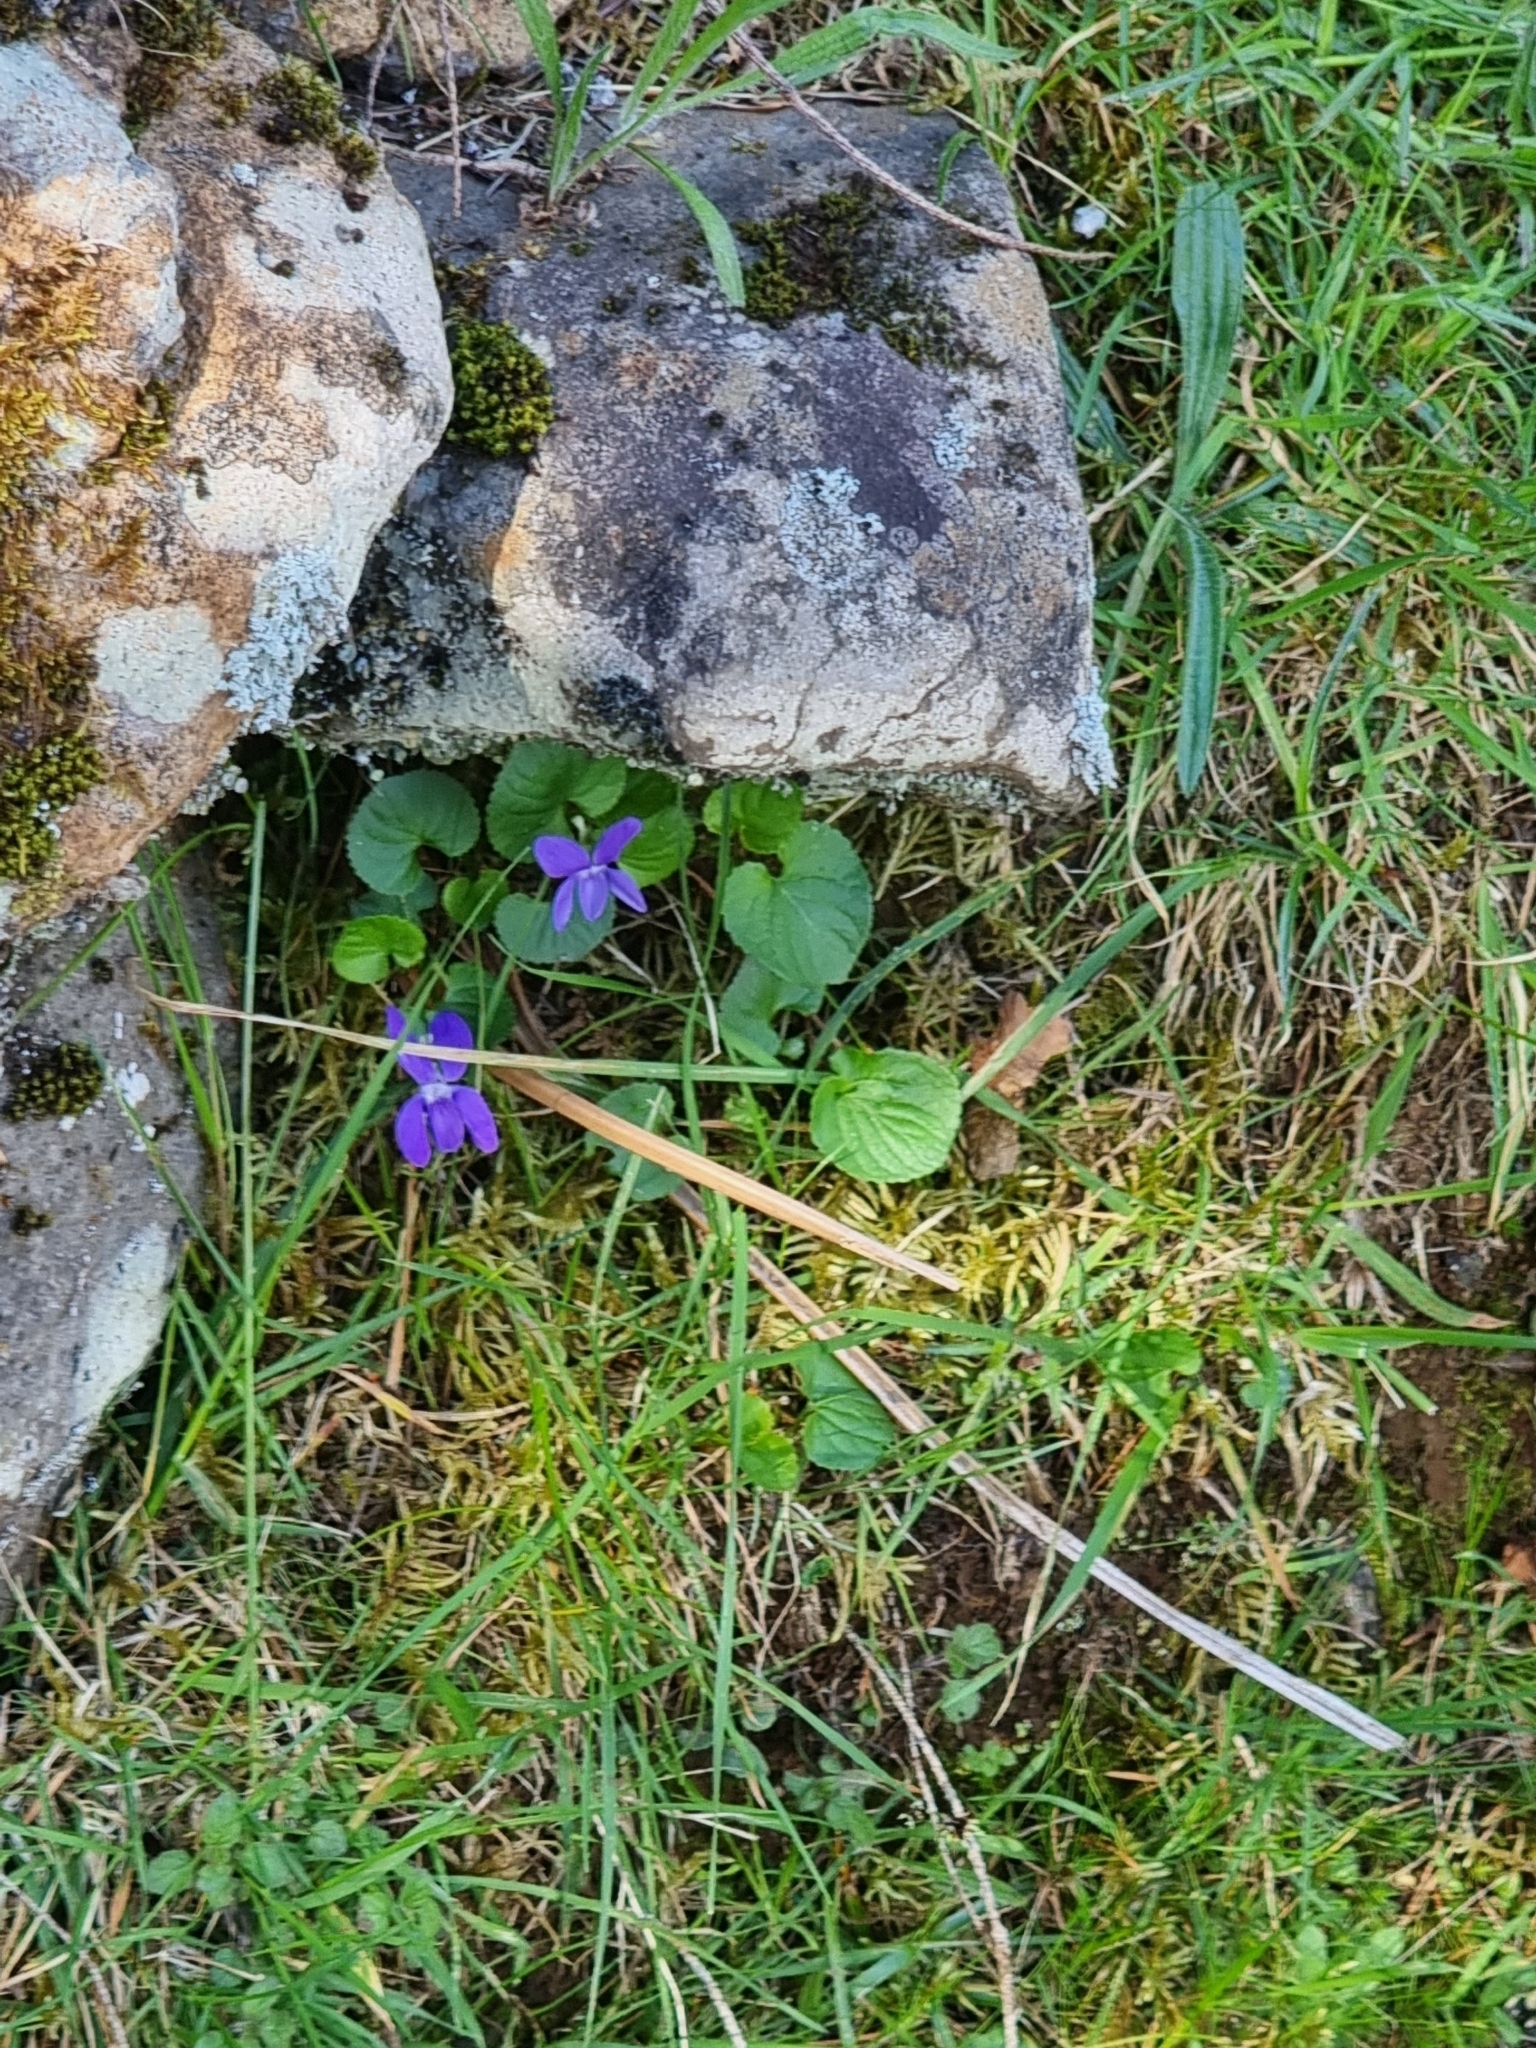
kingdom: Plantae
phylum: Tracheophyta
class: Magnoliopsida
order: Malpighiales
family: Violaceae
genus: Viola
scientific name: Viola riviniana
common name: Common dog-violet
